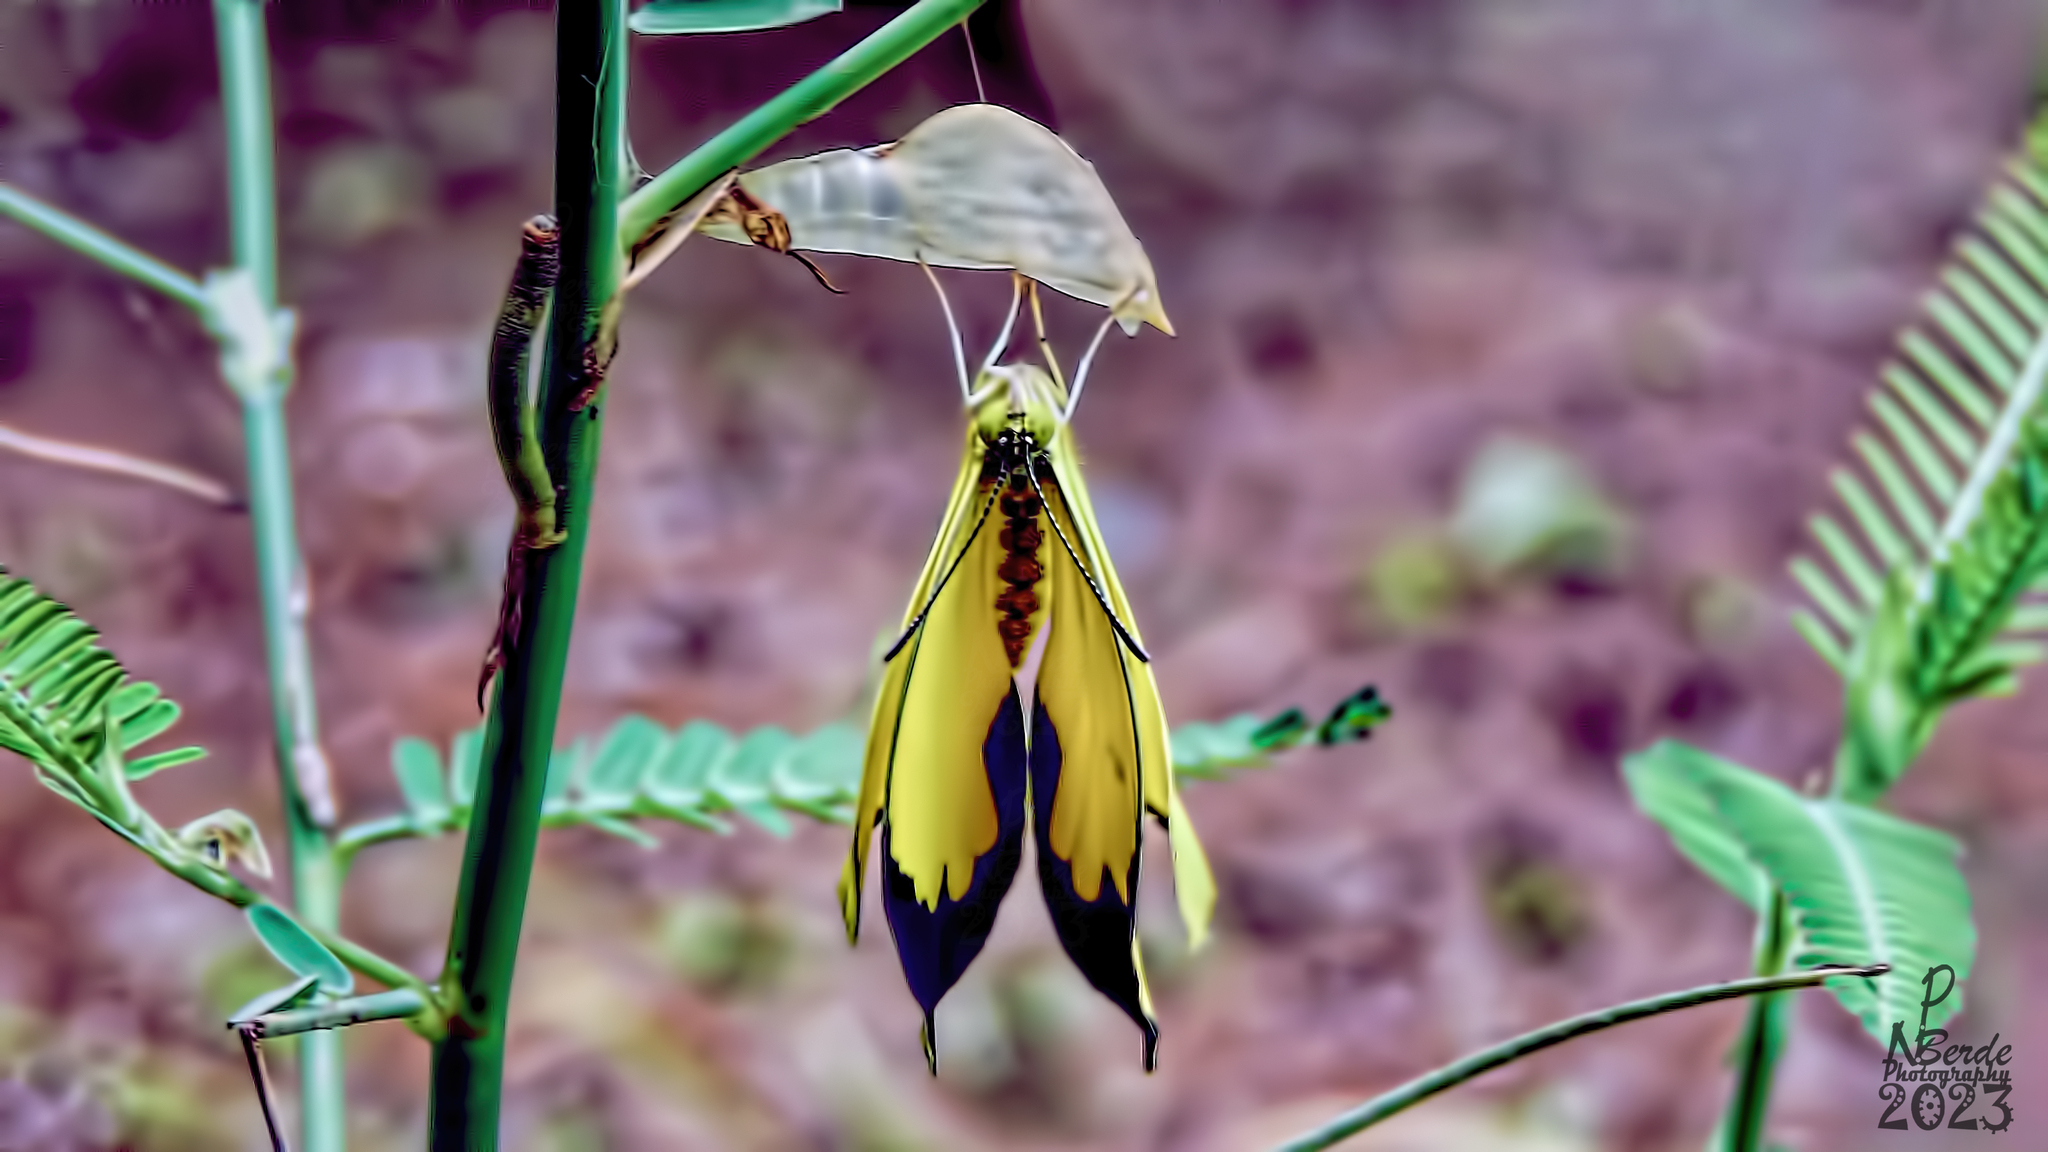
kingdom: Animalia
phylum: Arthropoda
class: Insecta
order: Lepidoptera
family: Pieridae
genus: Eurema
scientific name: Eurema hecabe
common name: Pale grass yellow
